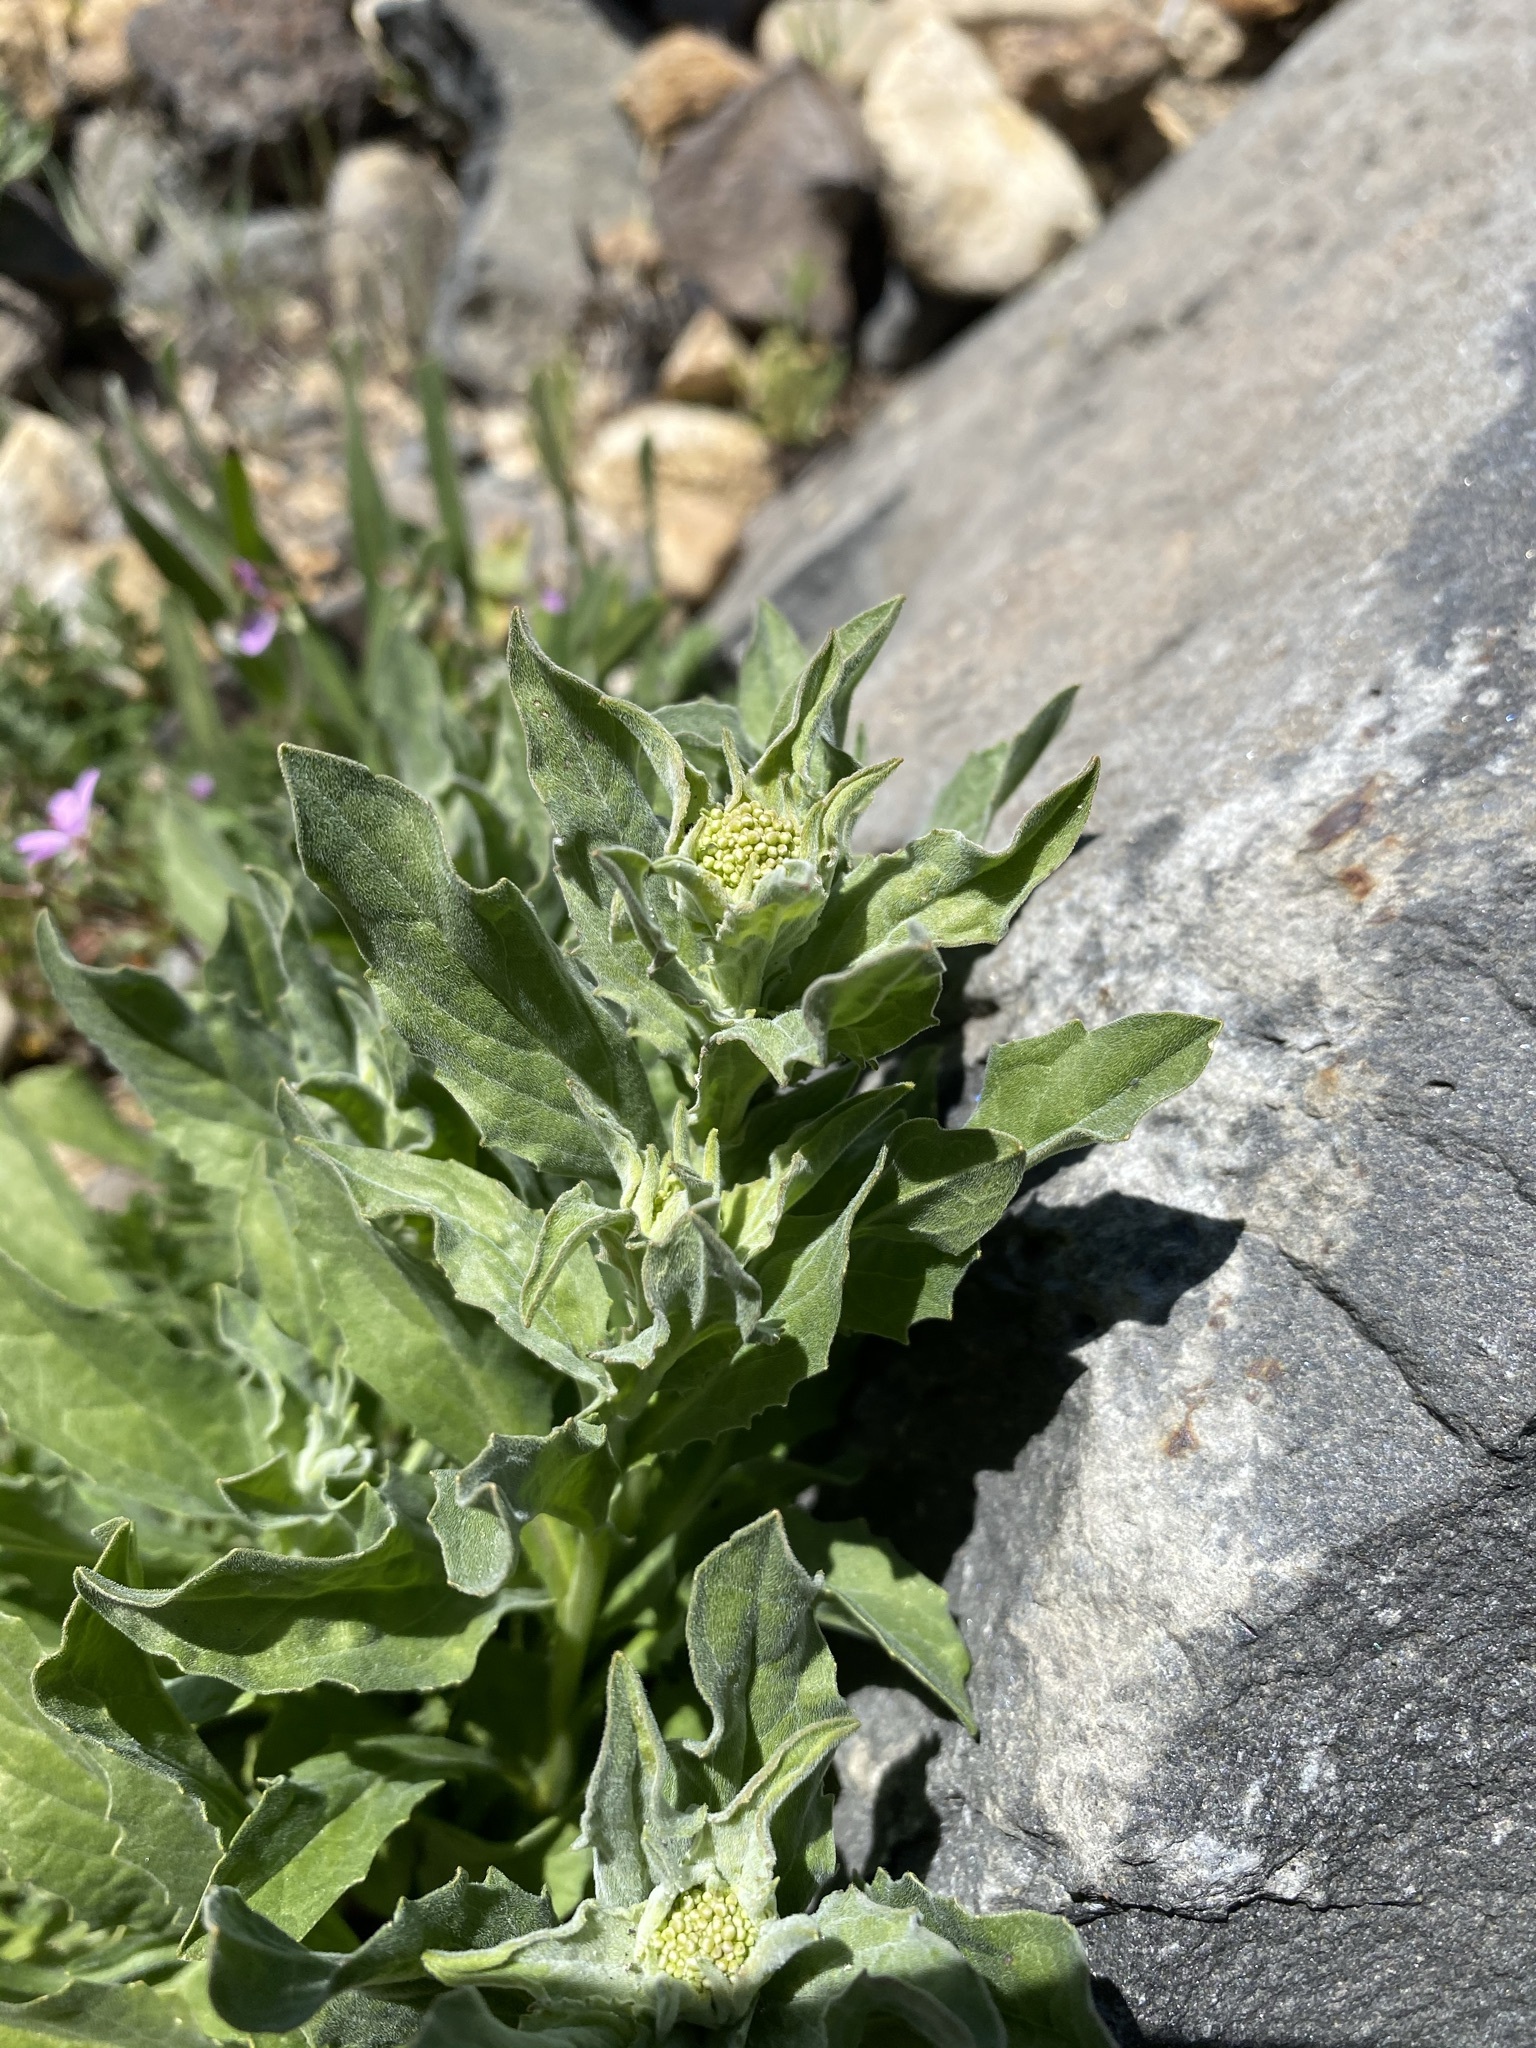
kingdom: Plantae
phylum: Tracheophyta
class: Magnoliopsida
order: Brassicales
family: Brassicaceae
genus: Lepidium
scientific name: Lepidium draba
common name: Hoary cress
